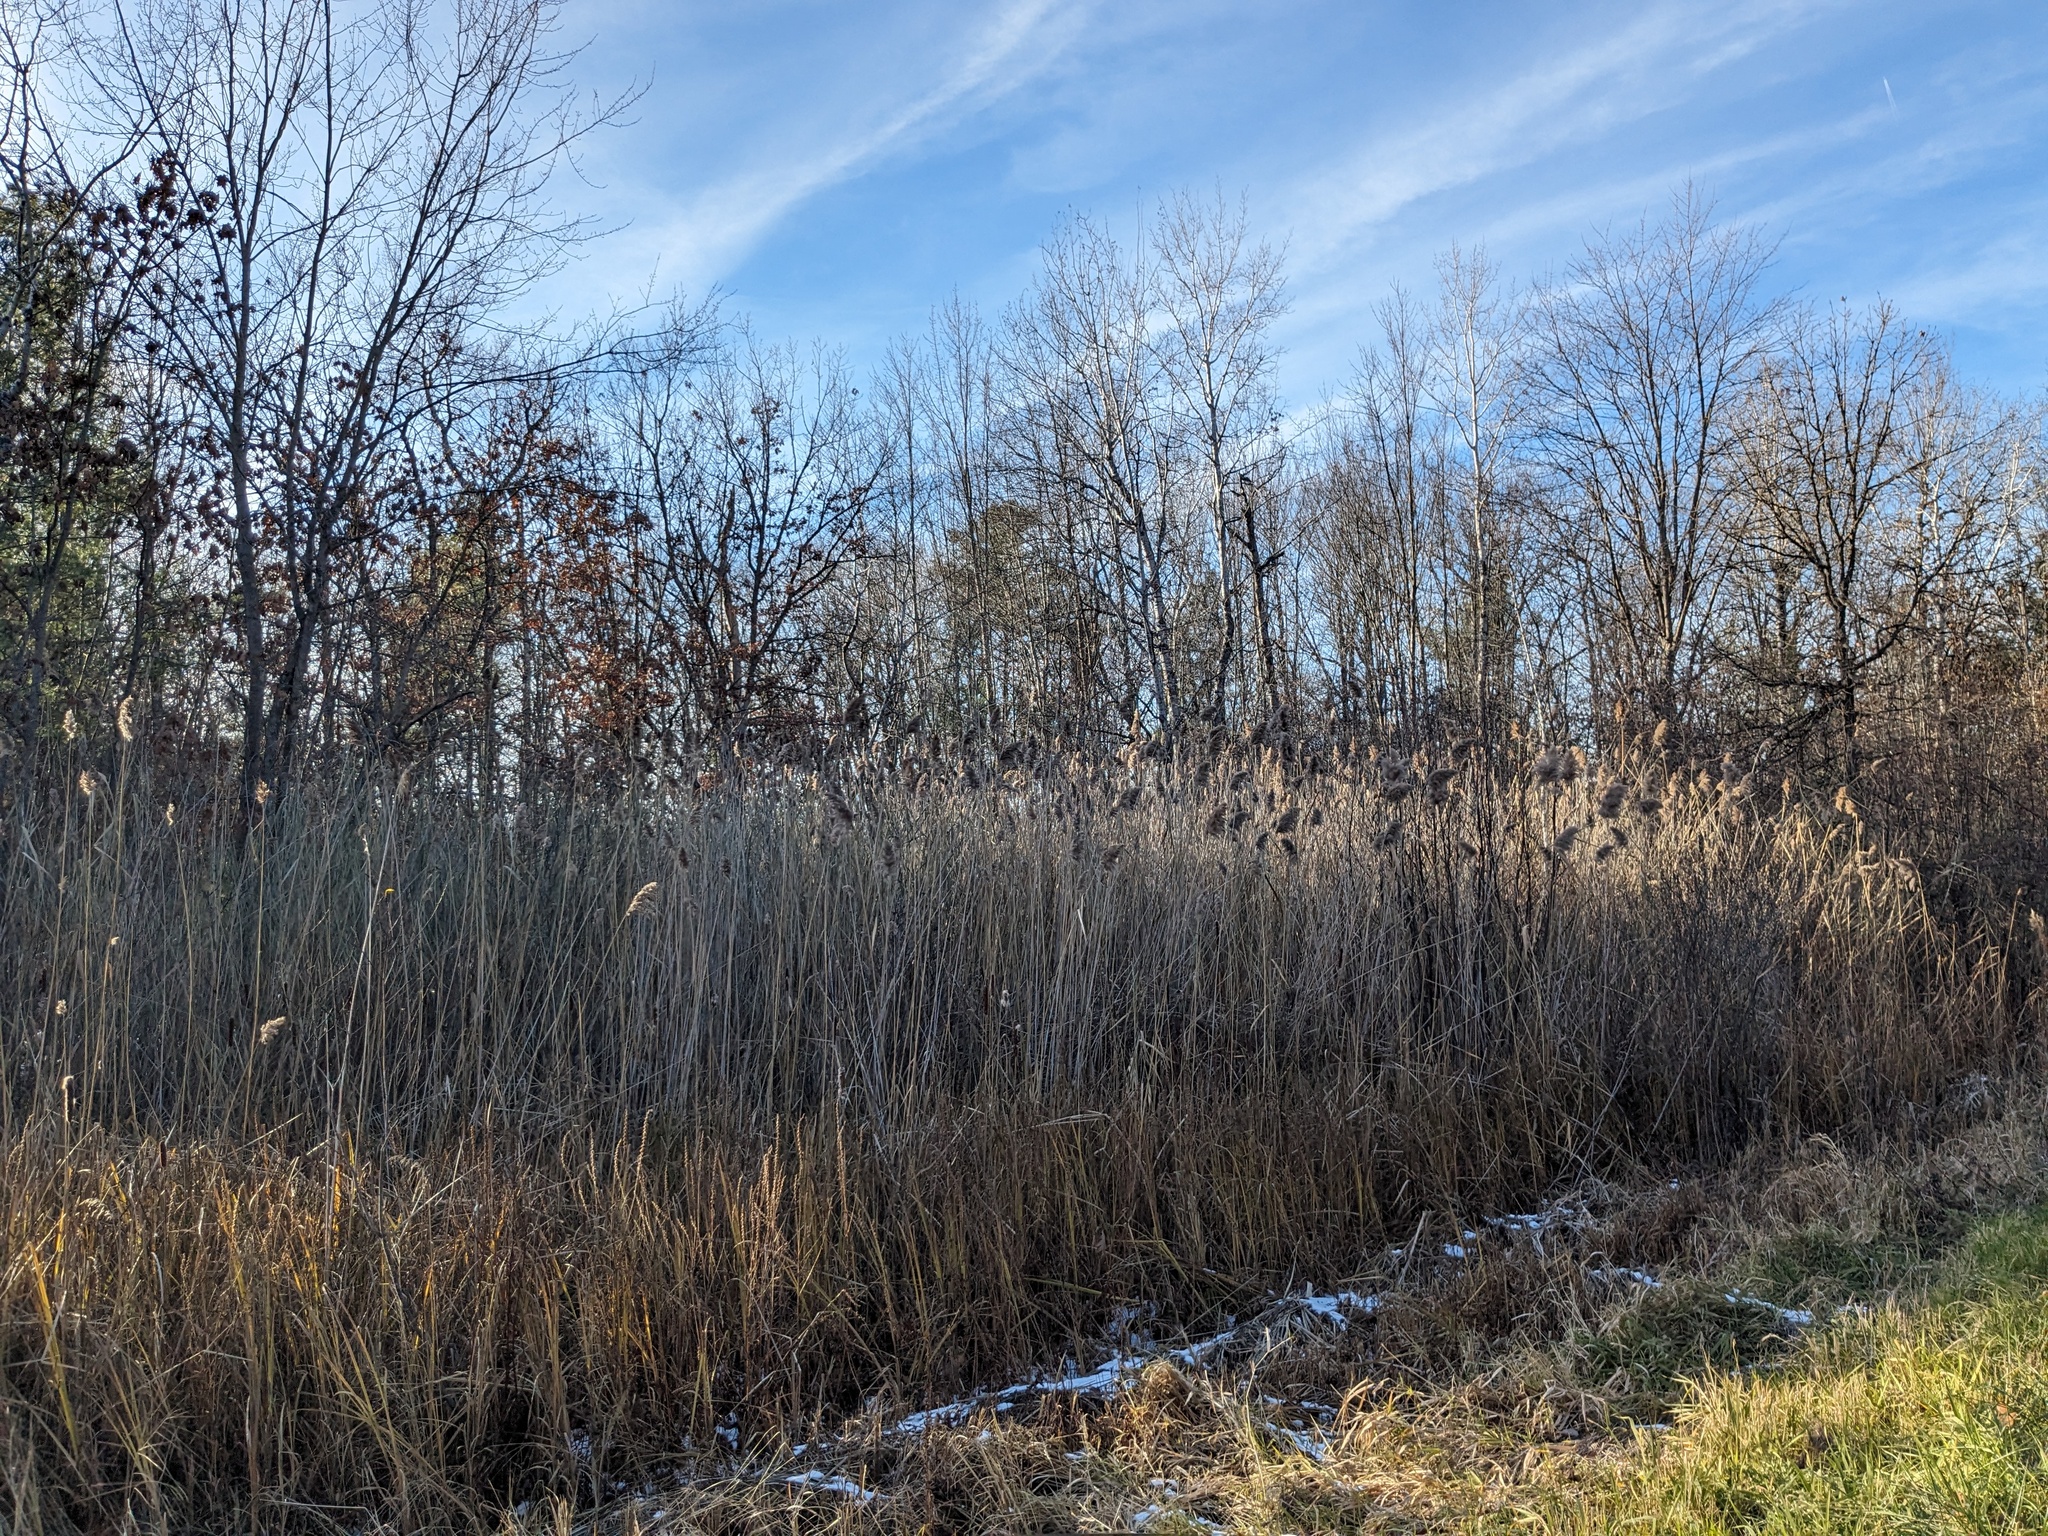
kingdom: Plantae
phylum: Tracheophyta
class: Liliopsida
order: Poales
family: Poaceae
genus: Phragmites
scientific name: Phragmites australis
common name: Common reed
